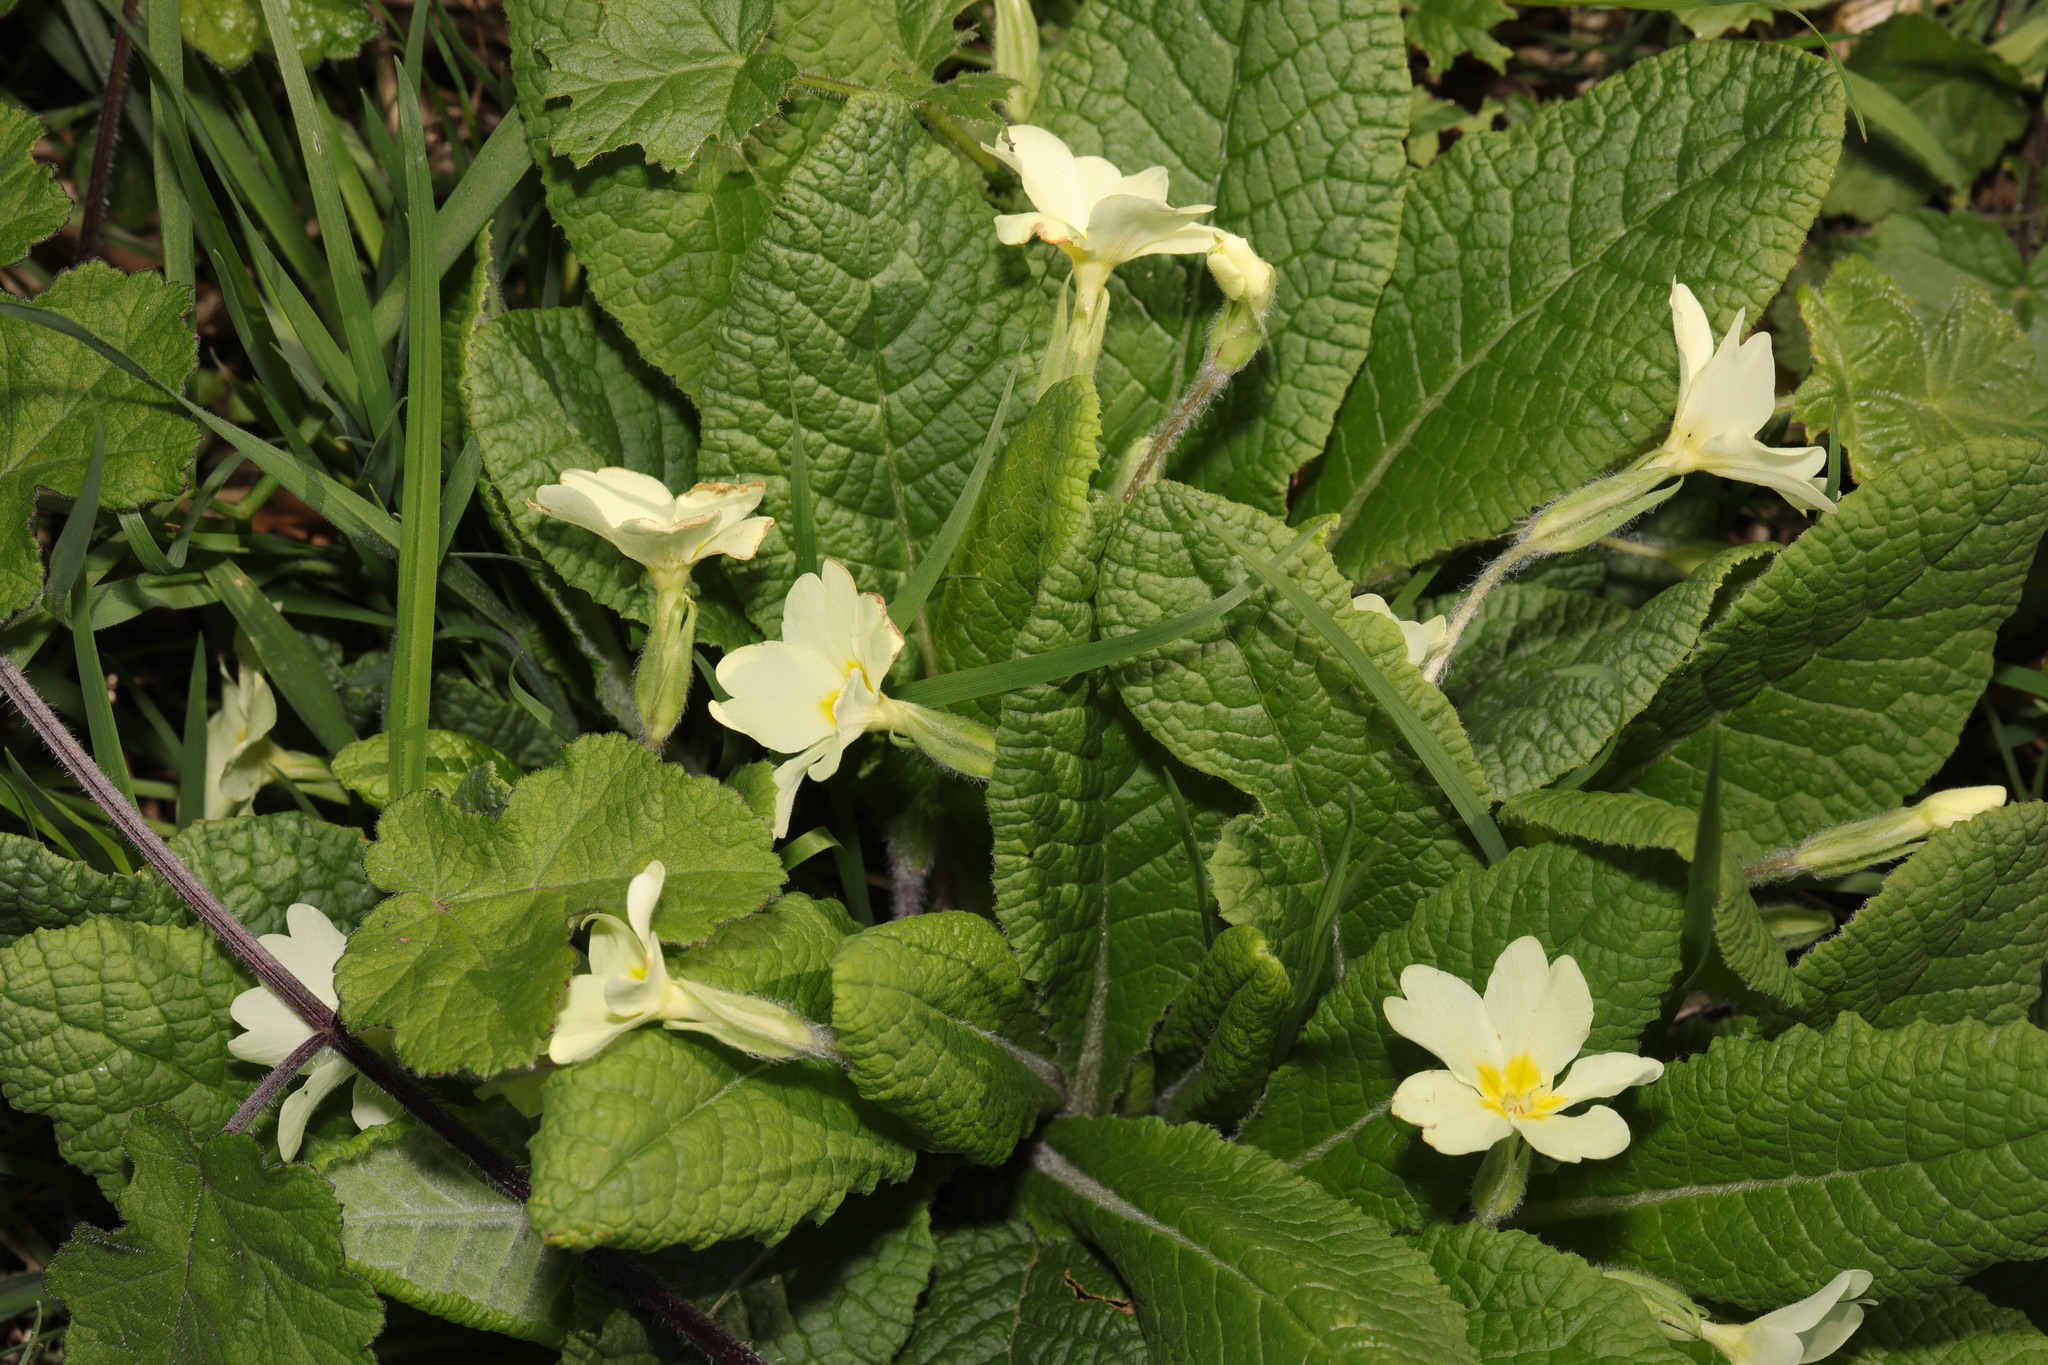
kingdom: Plantae
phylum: Tracheophyta
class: Magnoliopsida
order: Ericales
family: Primulaceae
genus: Primula
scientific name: Primula vulgaris
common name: Primrose
